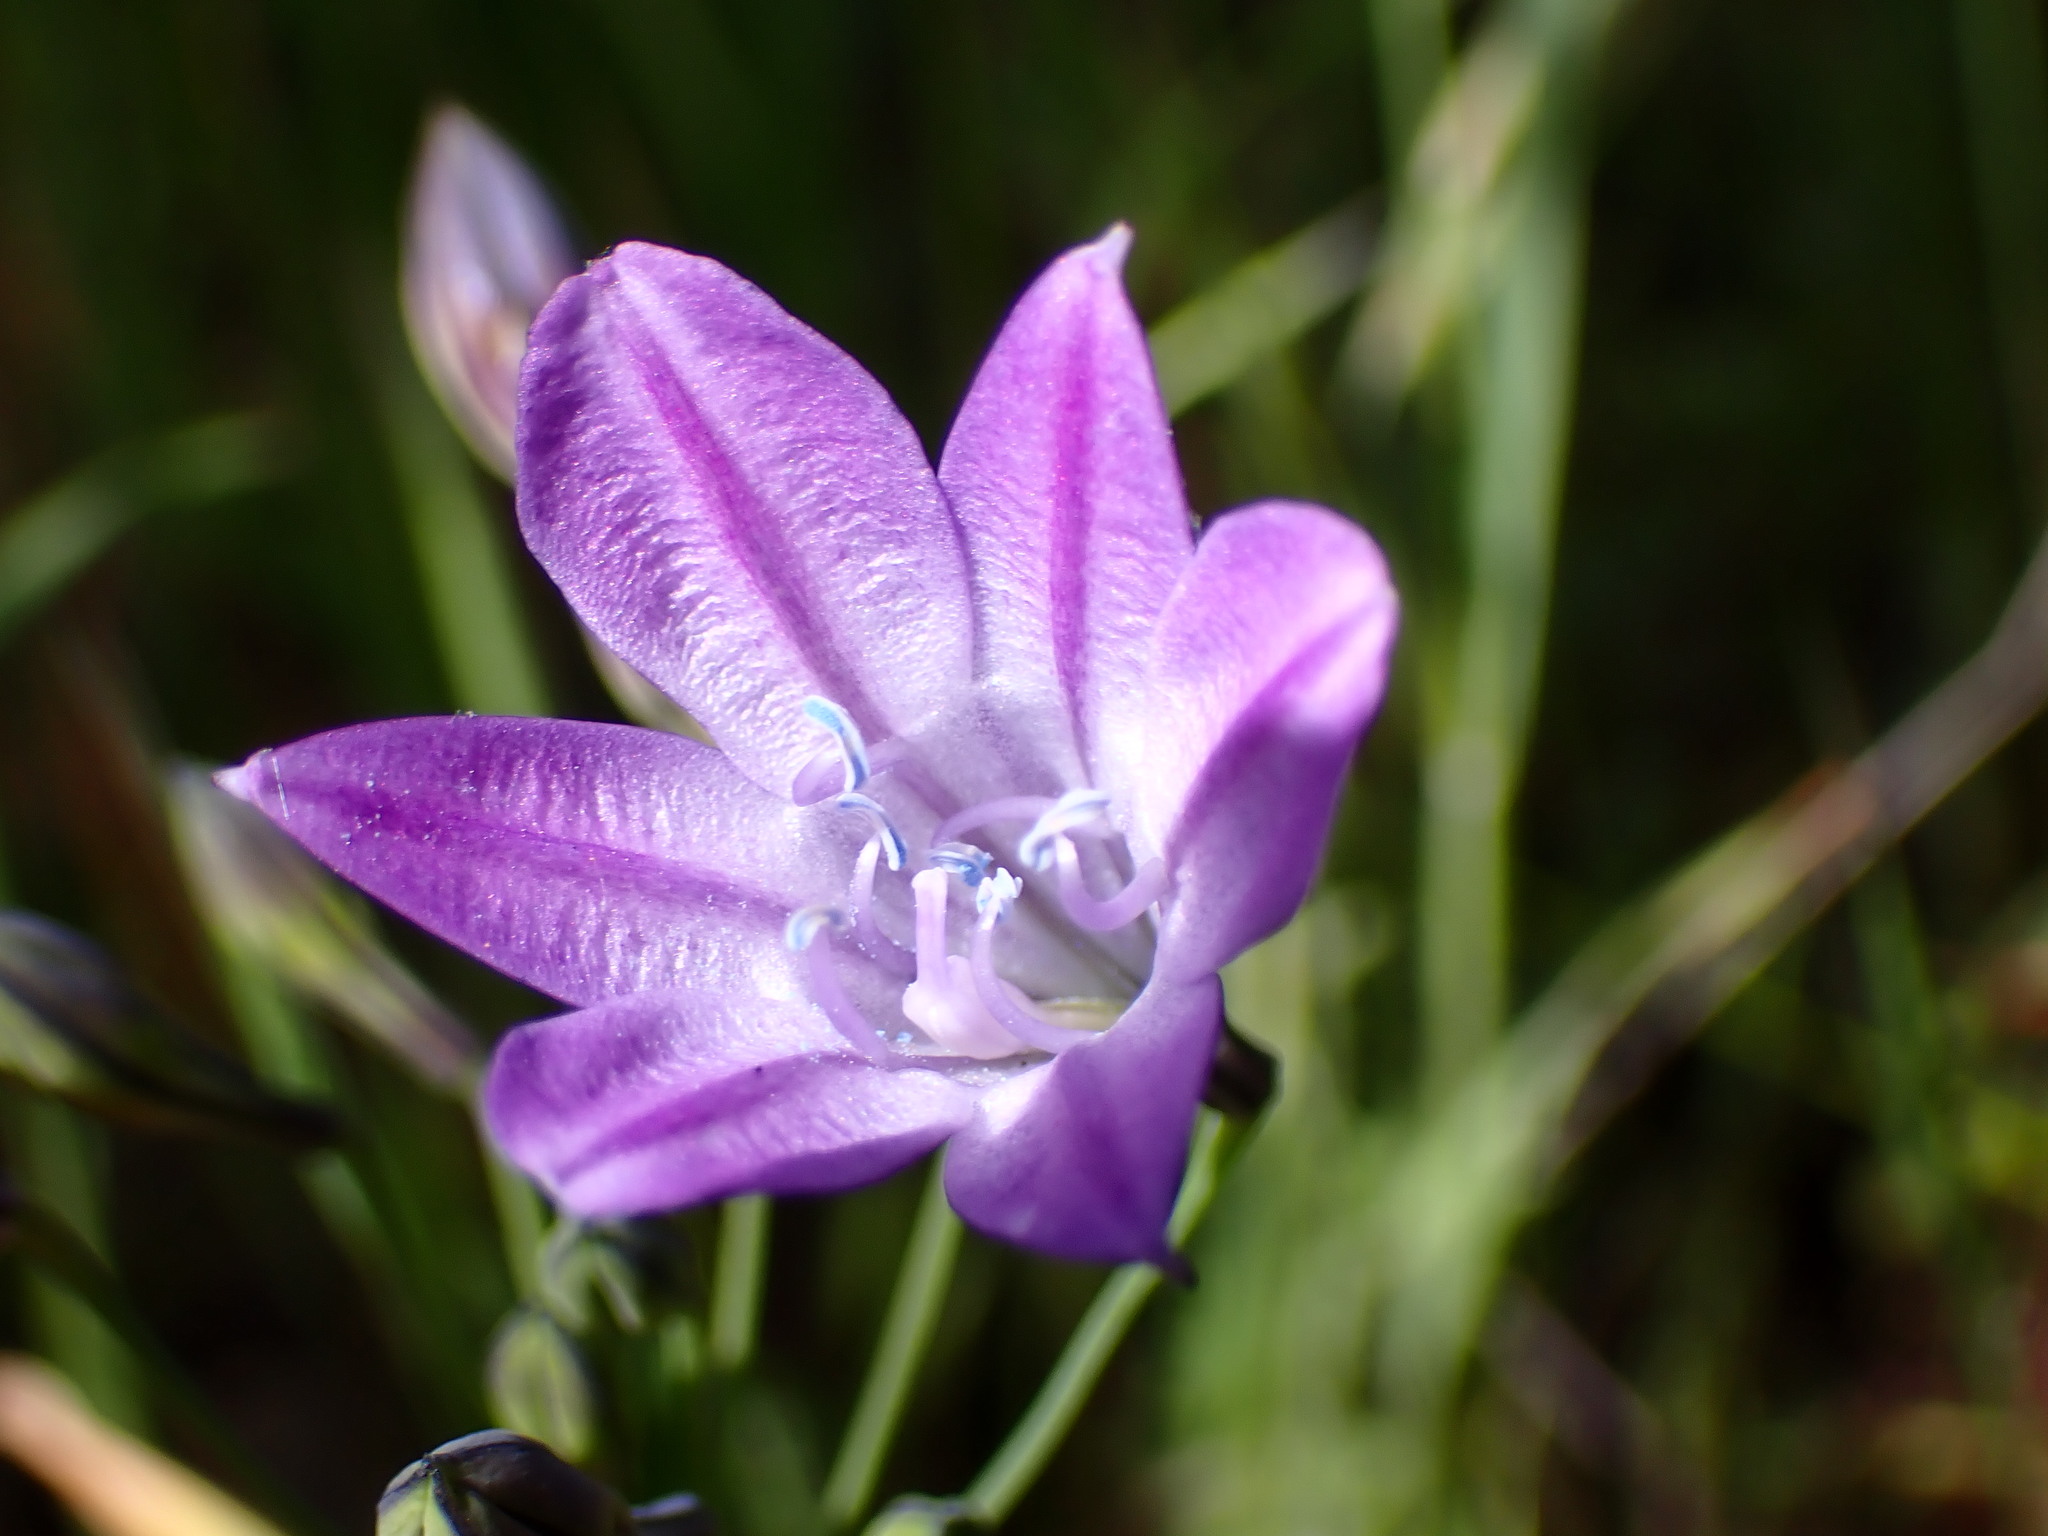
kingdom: Plantae
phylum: Tracheophyta
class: Liliopsida
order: Asparagales
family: Asparagaceae
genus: Triteleia
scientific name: Triteleia laxa
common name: Triplet-lily
